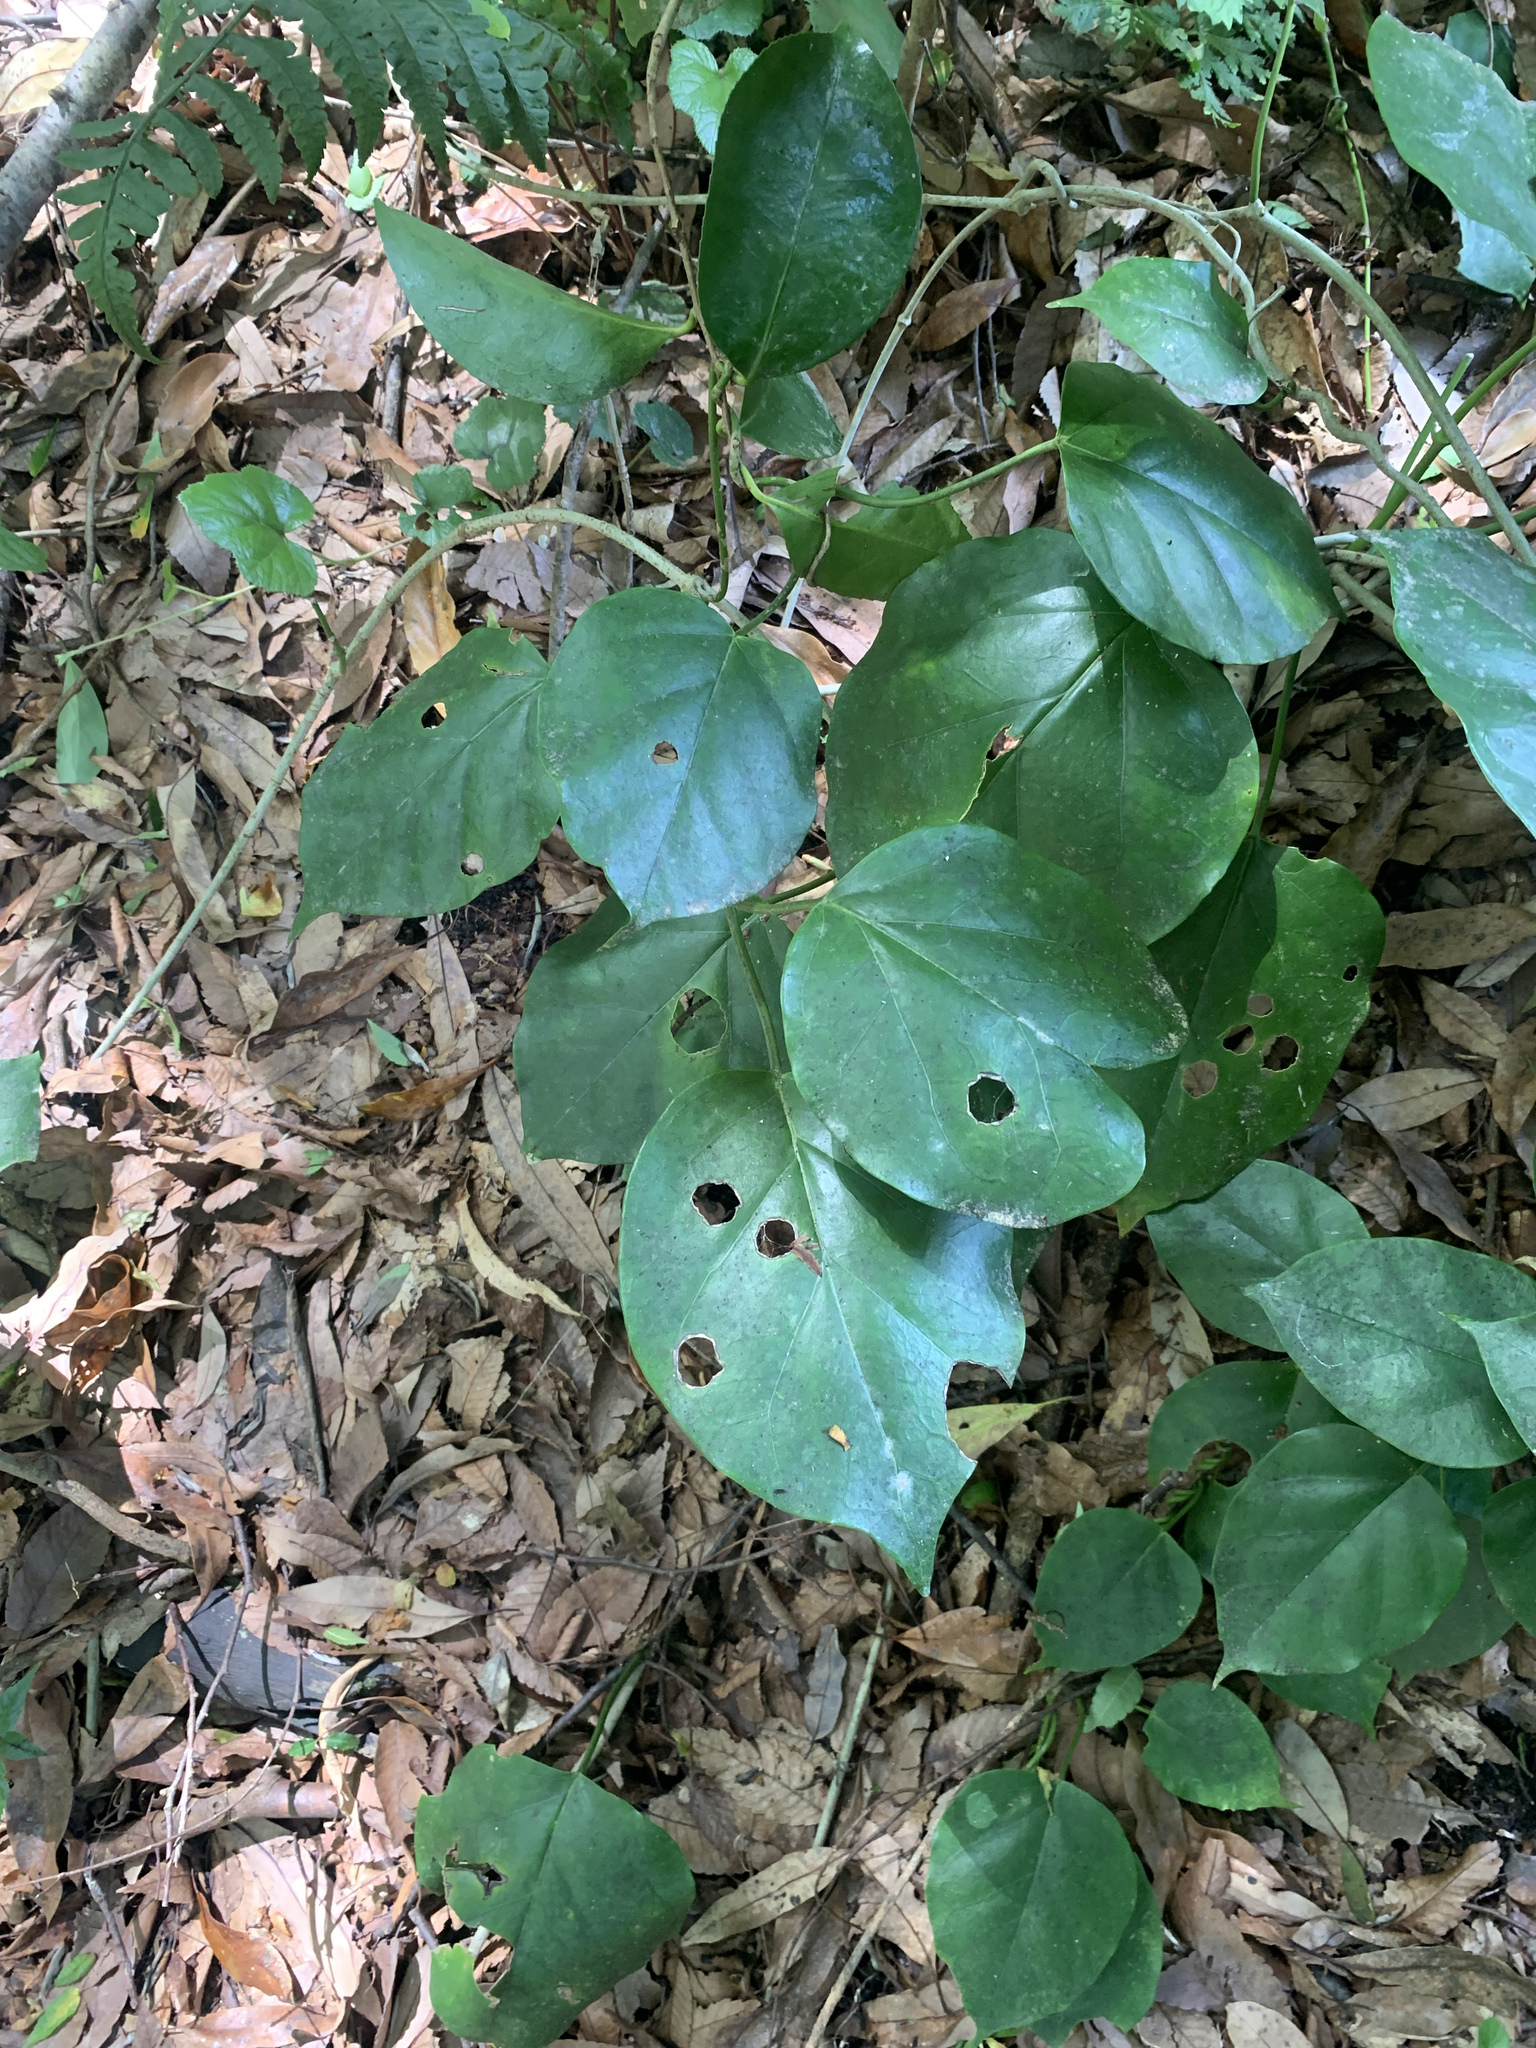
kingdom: Plantae
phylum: Tracheophyta
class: Magnoliopsida
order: Gentianales
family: Apocynaceae
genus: Sinomarsdenia
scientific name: Sinomarsdenia tomentosa
